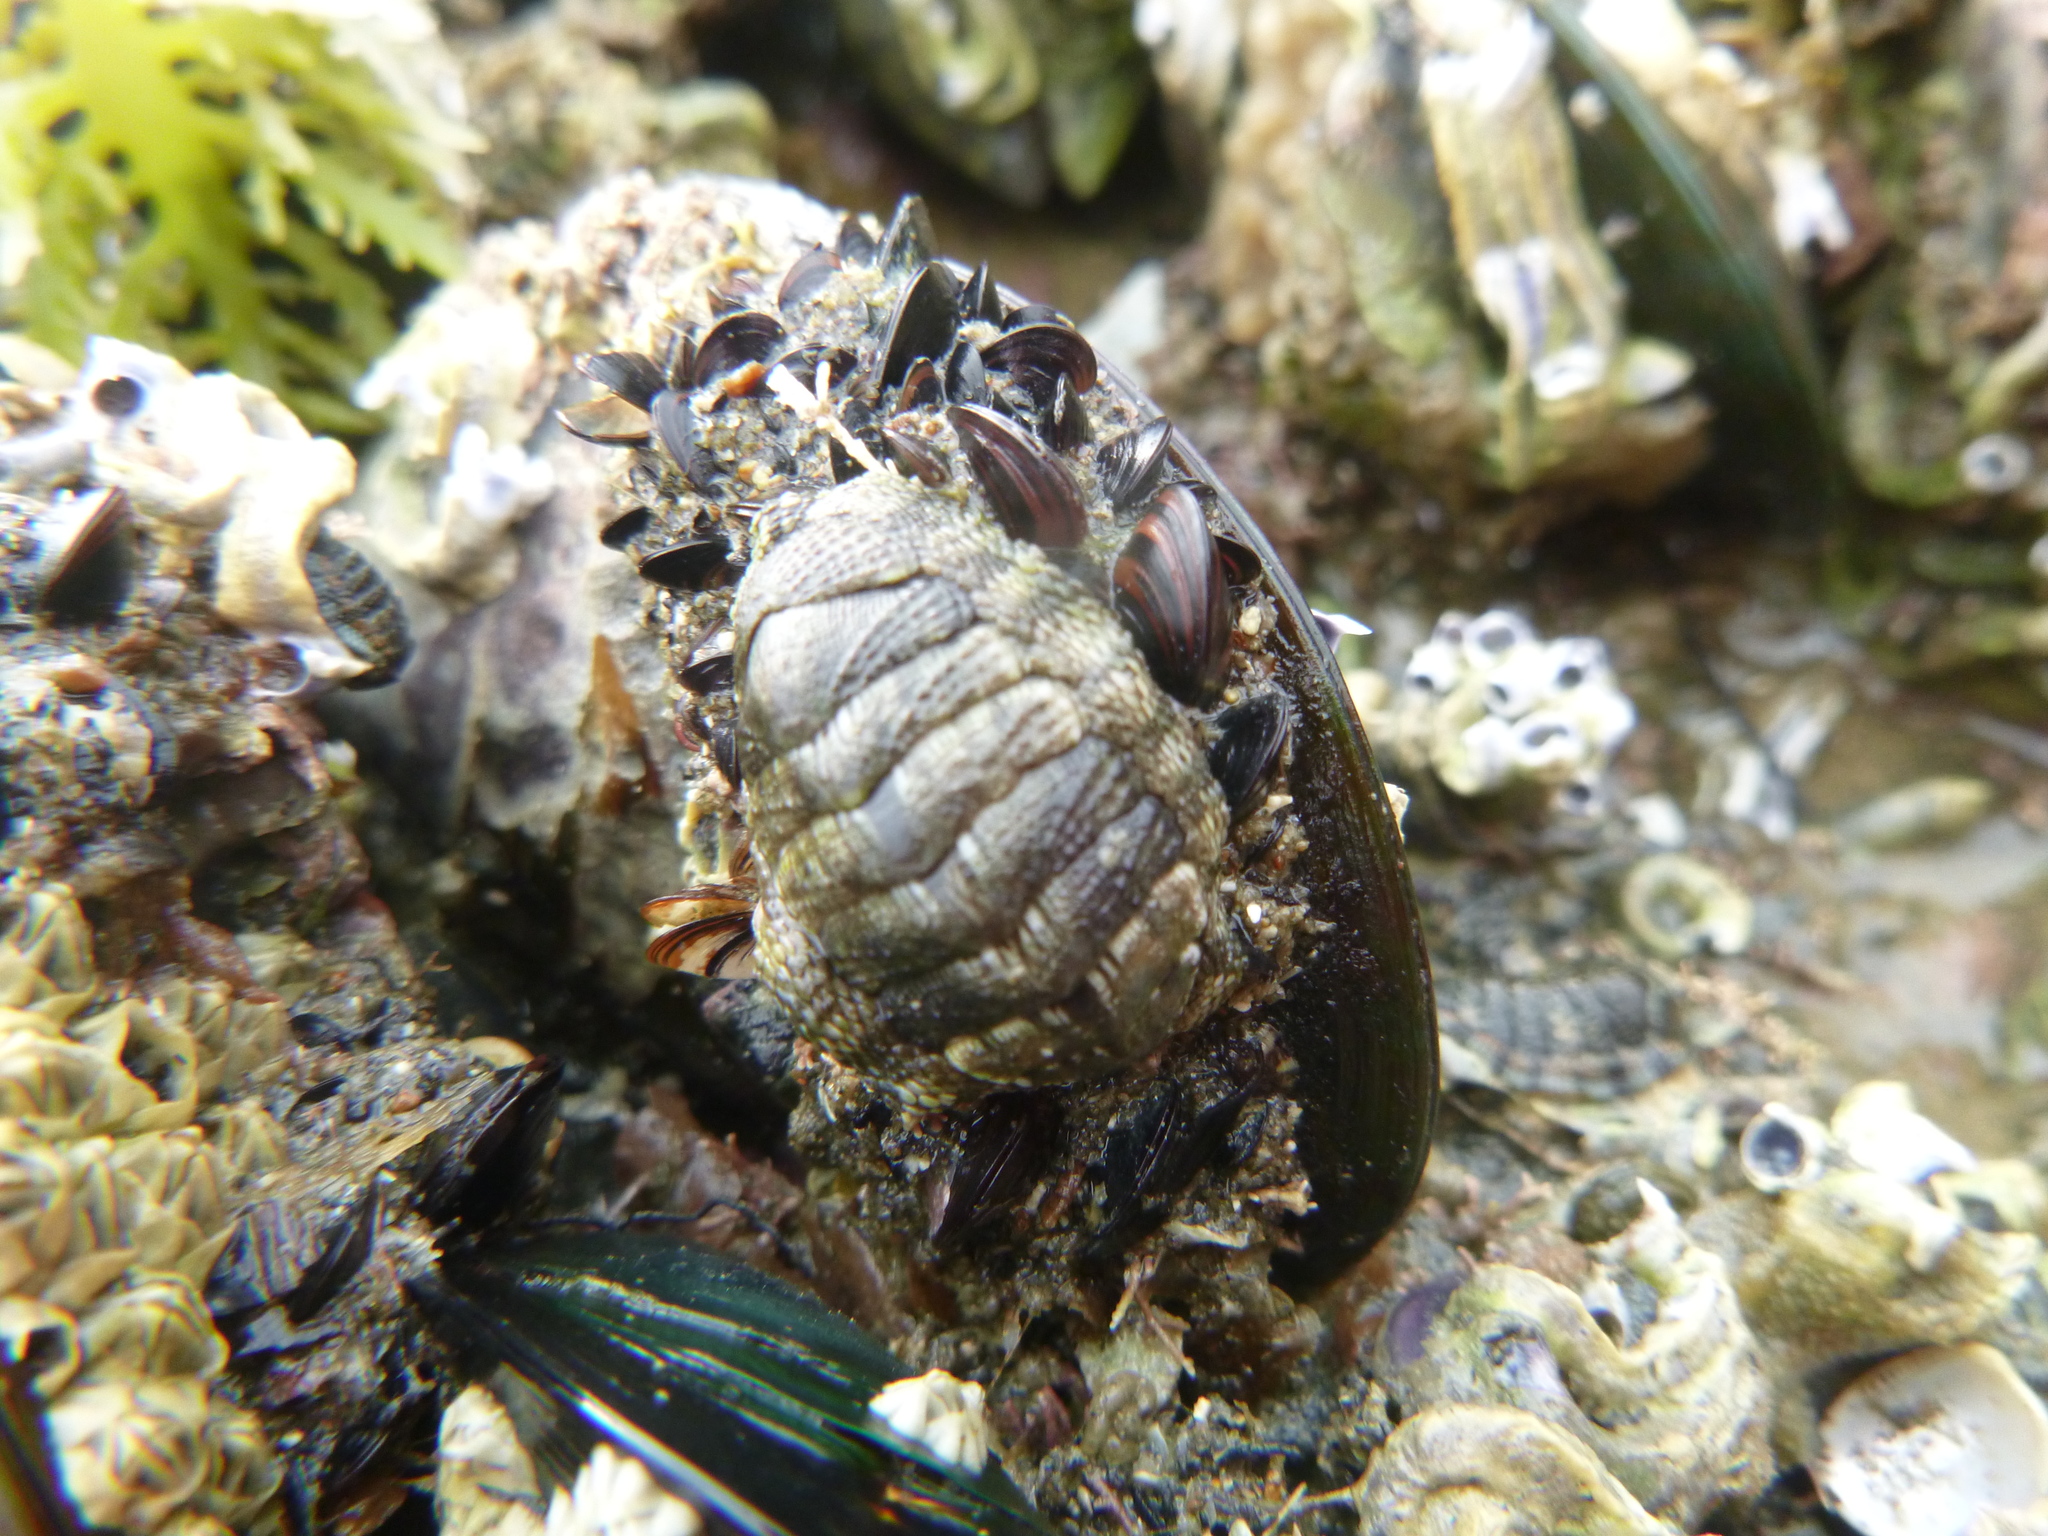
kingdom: Animalia
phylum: Mollusca
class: Polyplacophora
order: Chitonida
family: Chitonidae
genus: Sypharochiton
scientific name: Sypharochiton pelliserpentis
